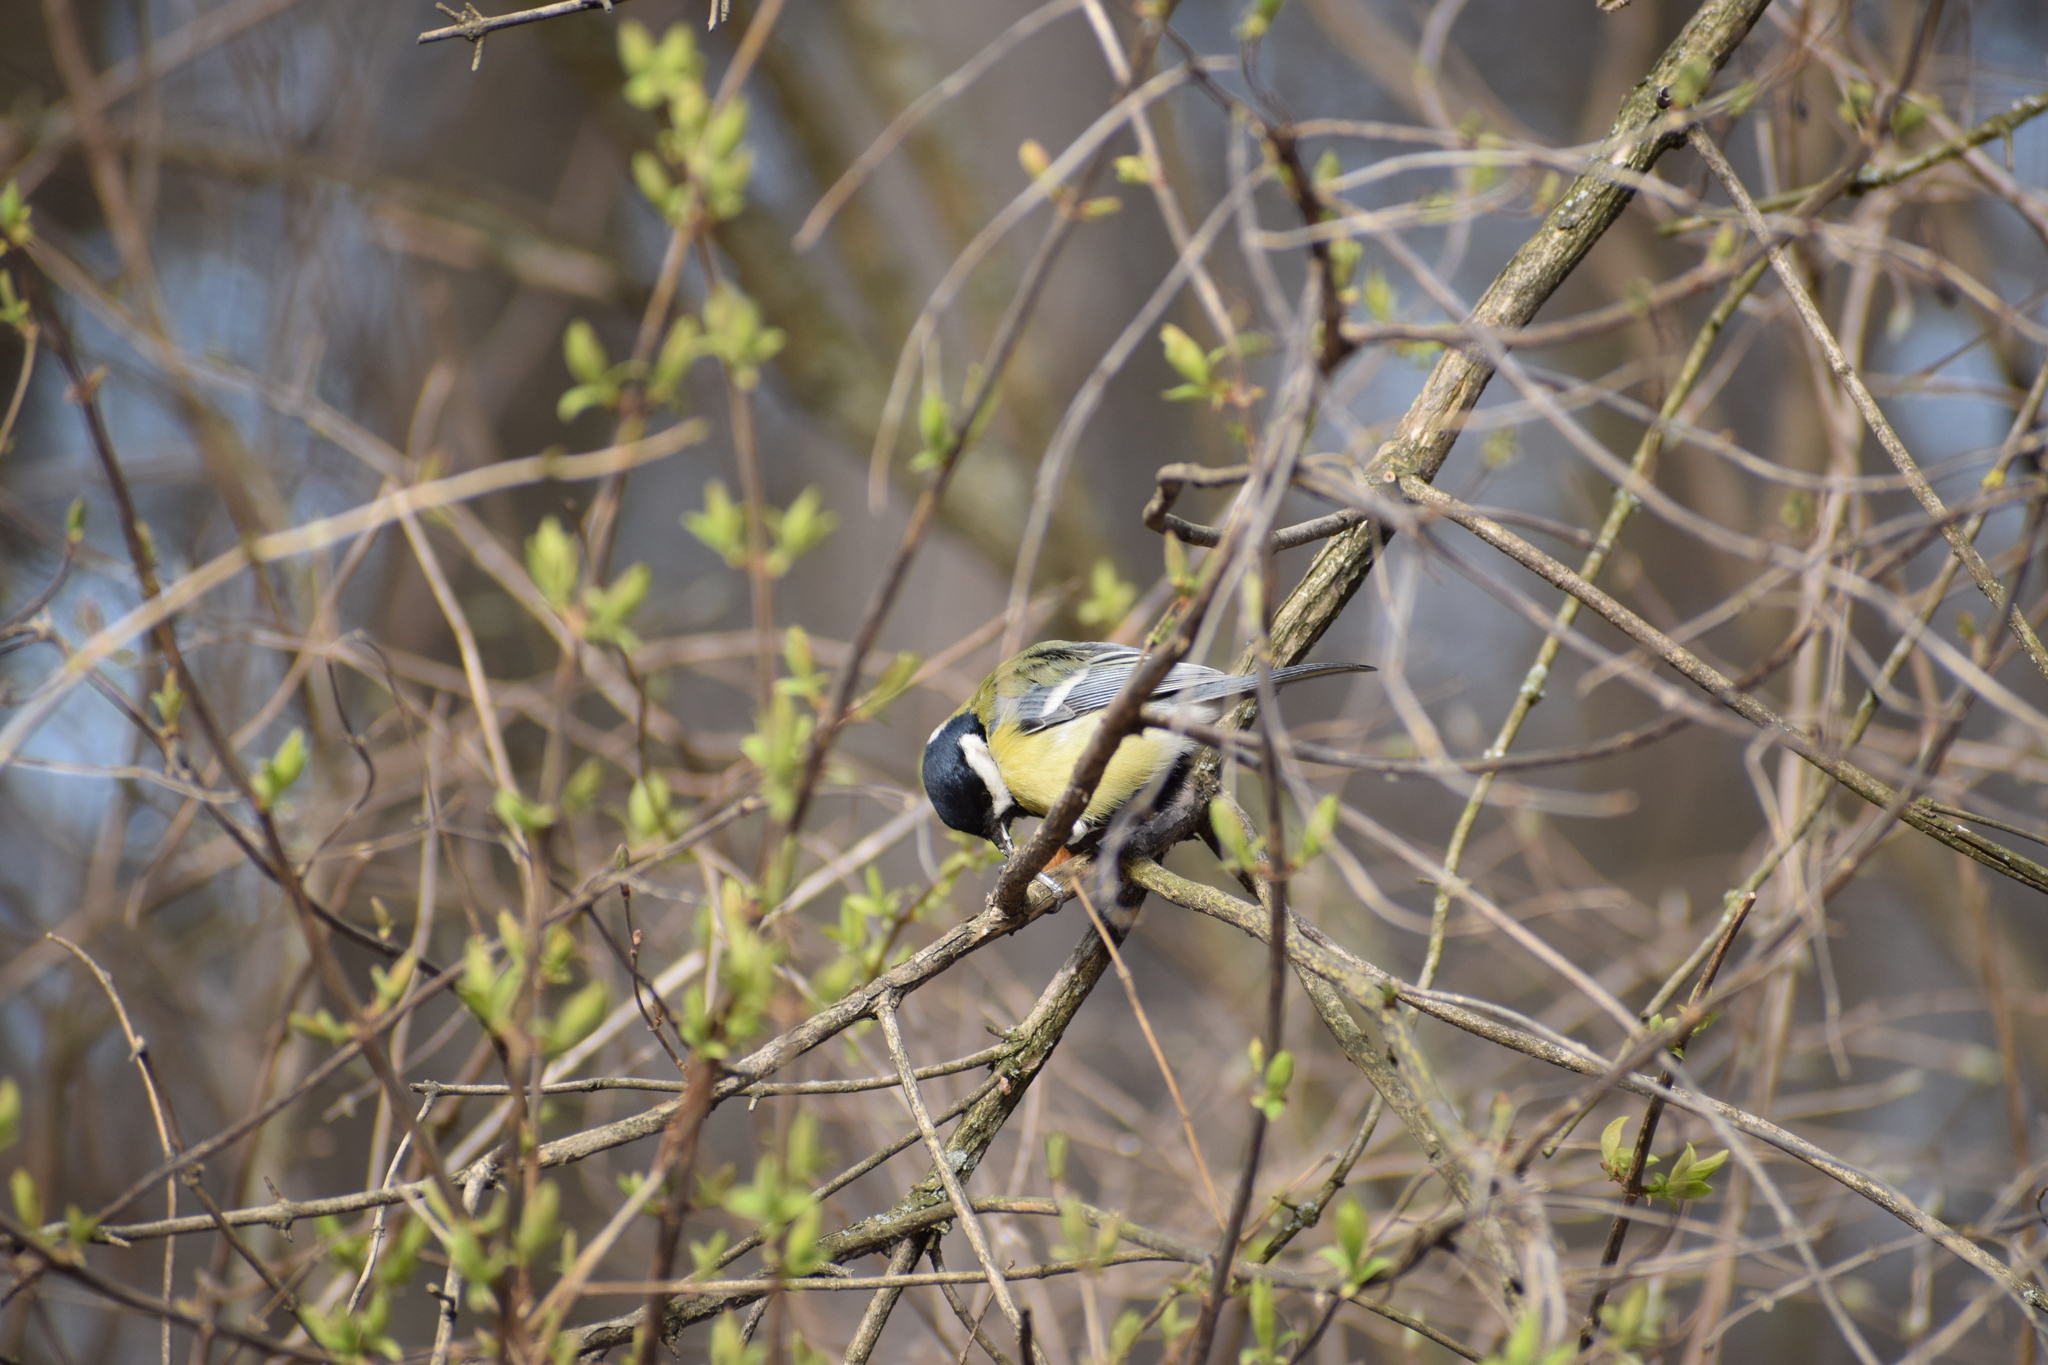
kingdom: Animalia
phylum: Chordata
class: Aves
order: Passeriformes
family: Paridae
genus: Parus
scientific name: Parus major
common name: Great tit
